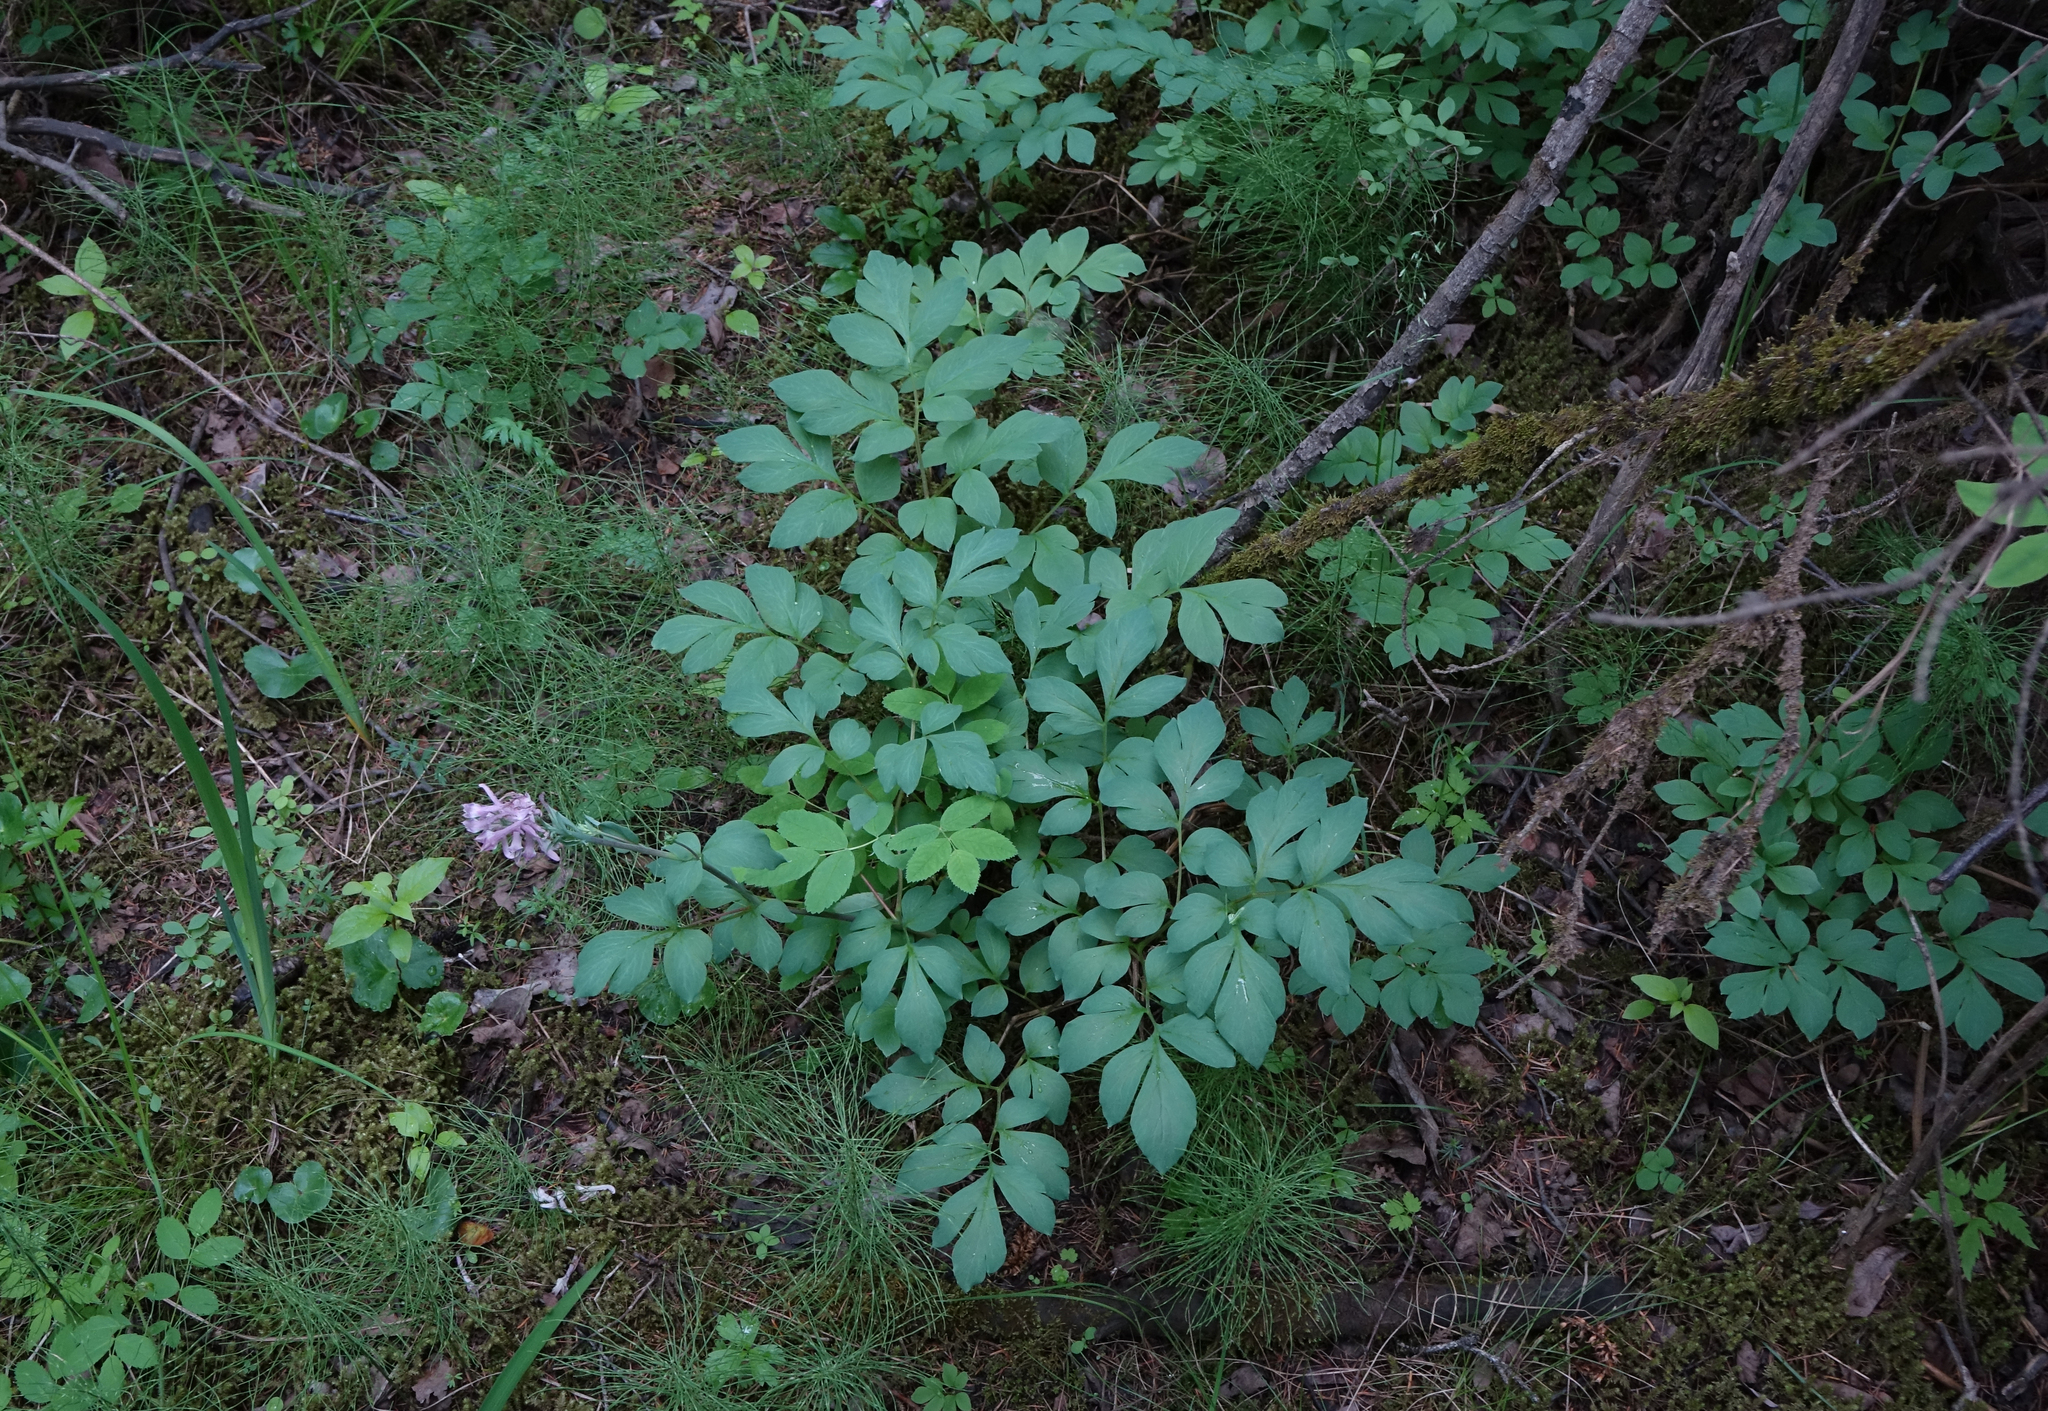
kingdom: Plantae
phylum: Tracheophyta
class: Magnoliopsida
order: Ranunculales
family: Papaveraceae
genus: Corydalis
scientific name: Corydalis paeoniifolia
